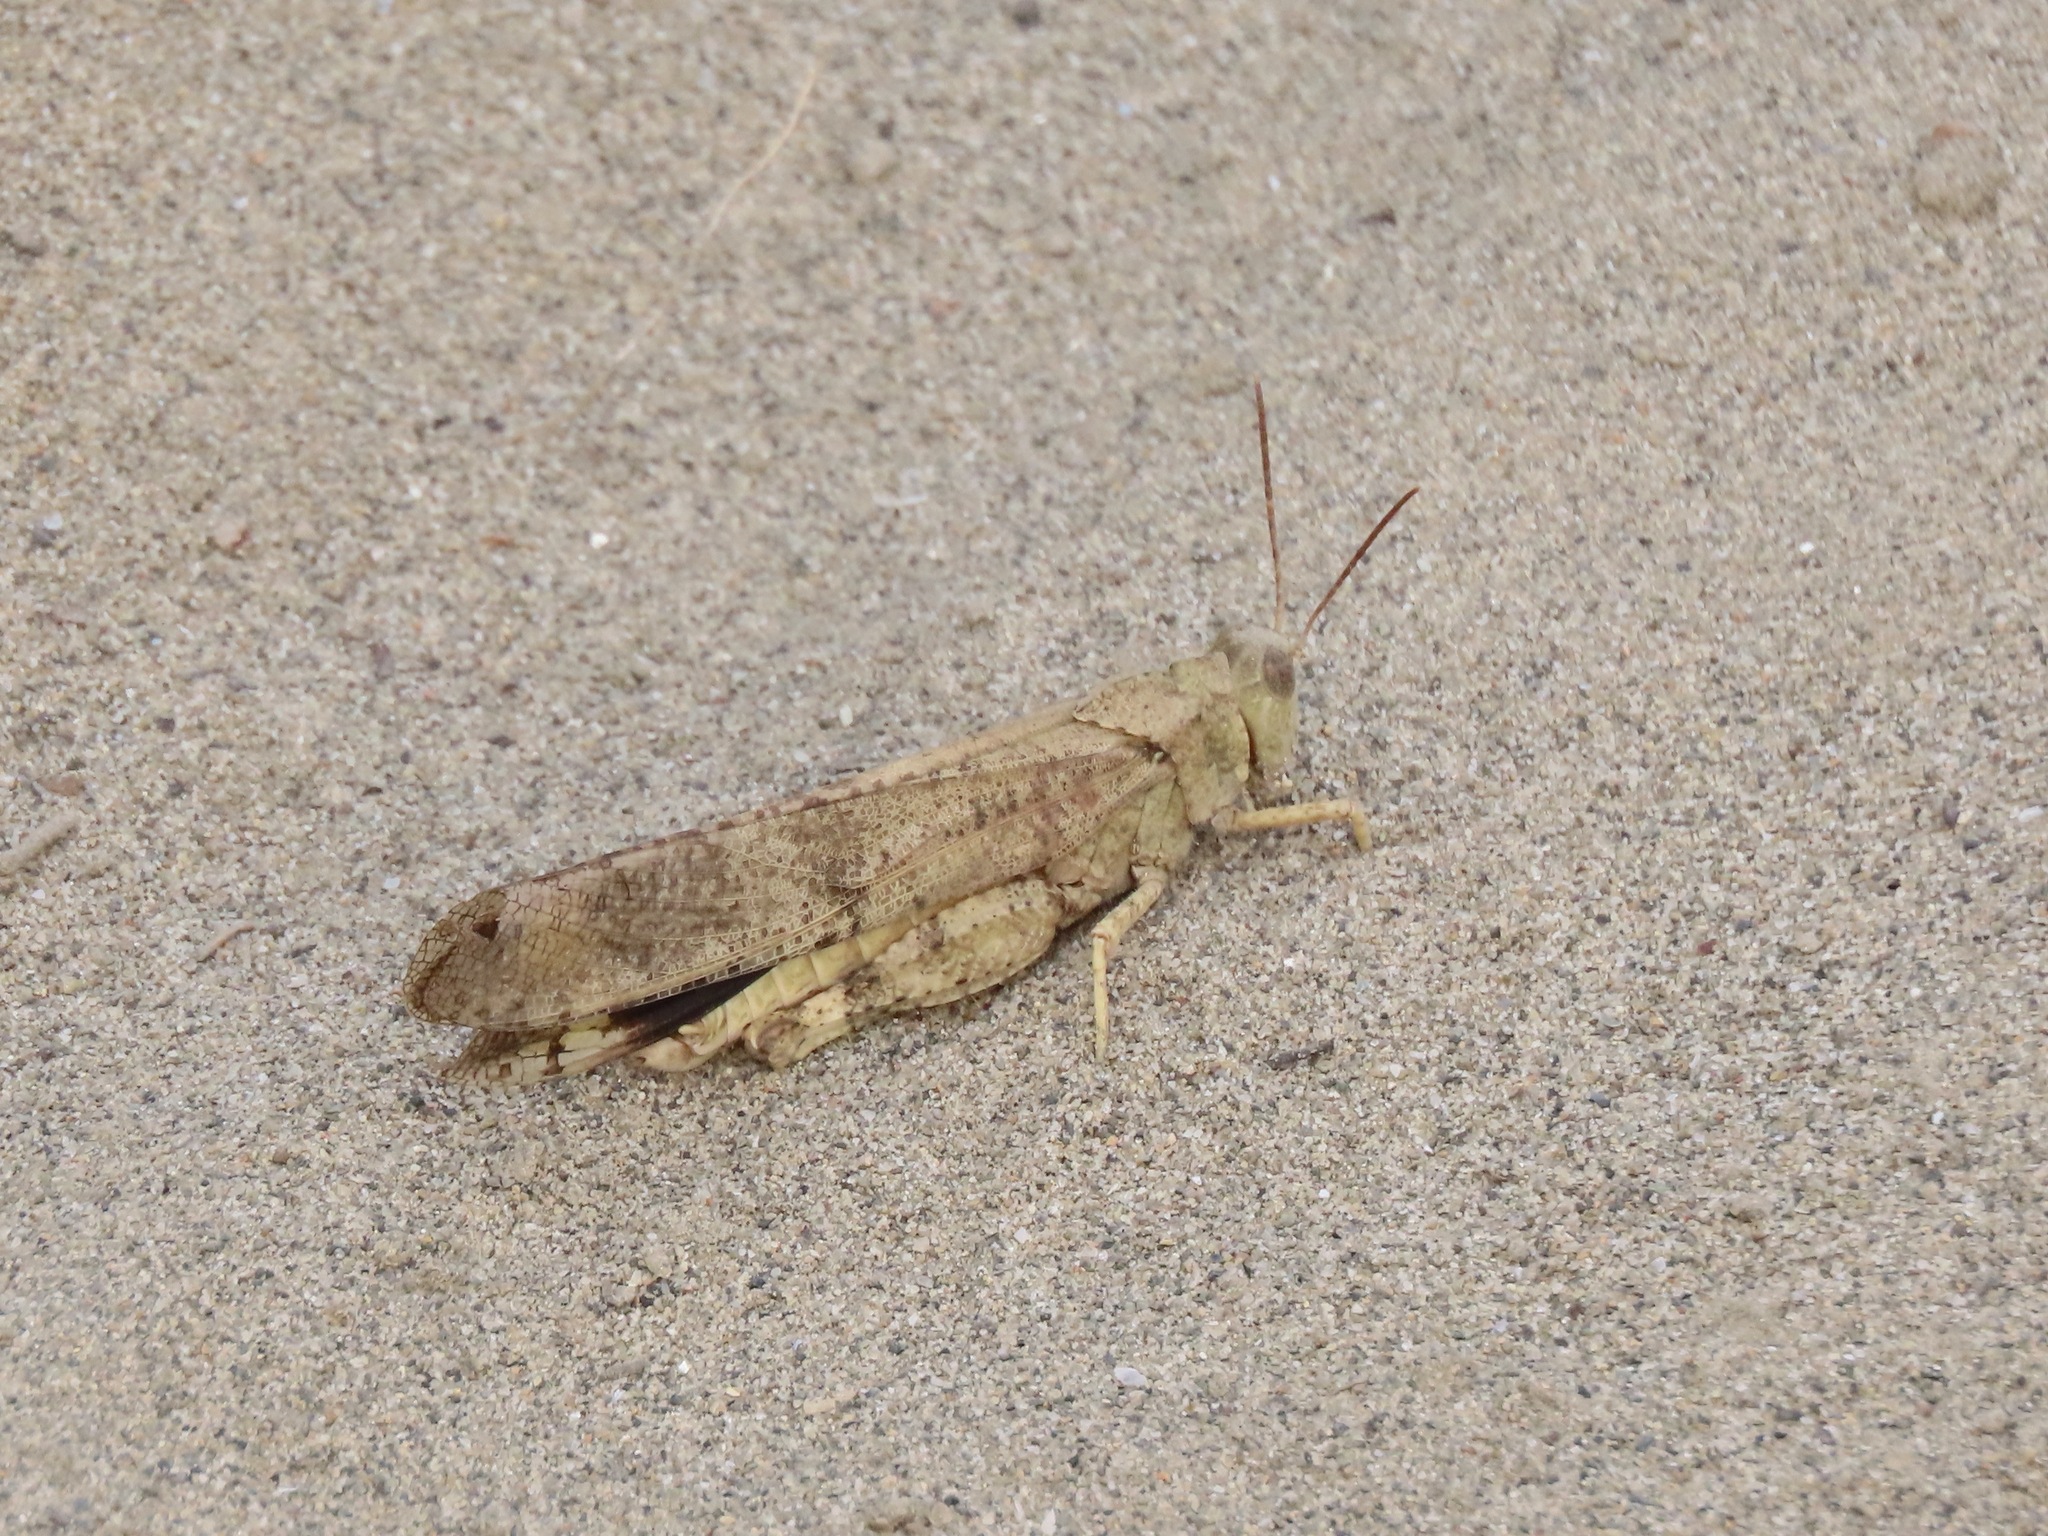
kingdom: Animalia
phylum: Arthropoda
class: Insecta
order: Orthoptera
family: Acrididae
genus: Dissosteira
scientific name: Dissosteira carolina
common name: Carolina grasshopper
